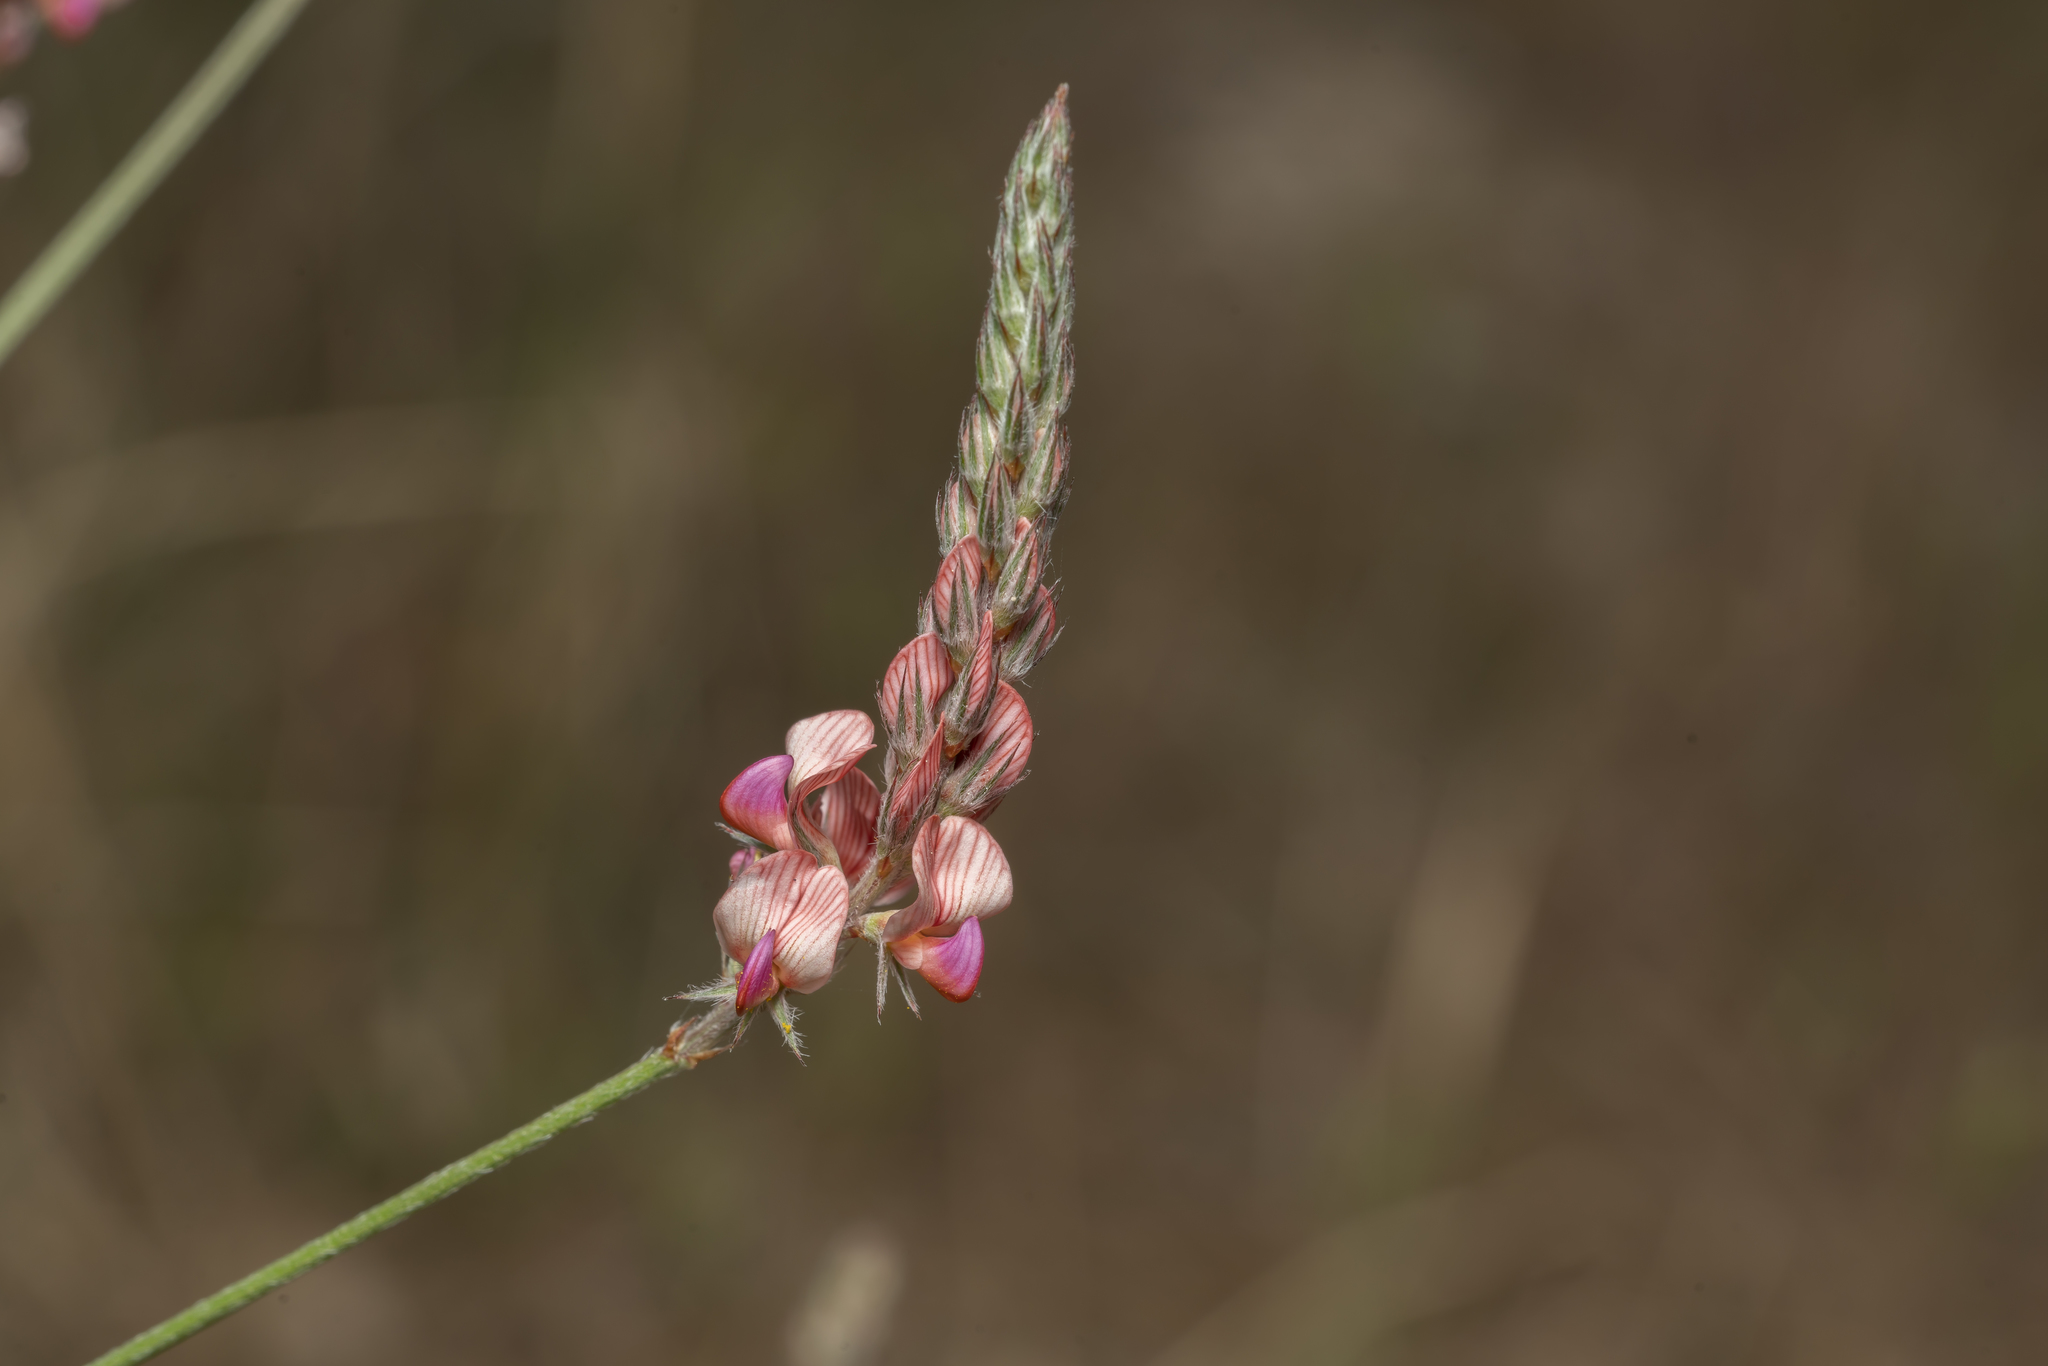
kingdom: Plantae
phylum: Tracheophyta
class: Magnoliopsida
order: Fabales
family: Fabaceae
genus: Onobrychis
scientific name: Onobrychis gracilis
